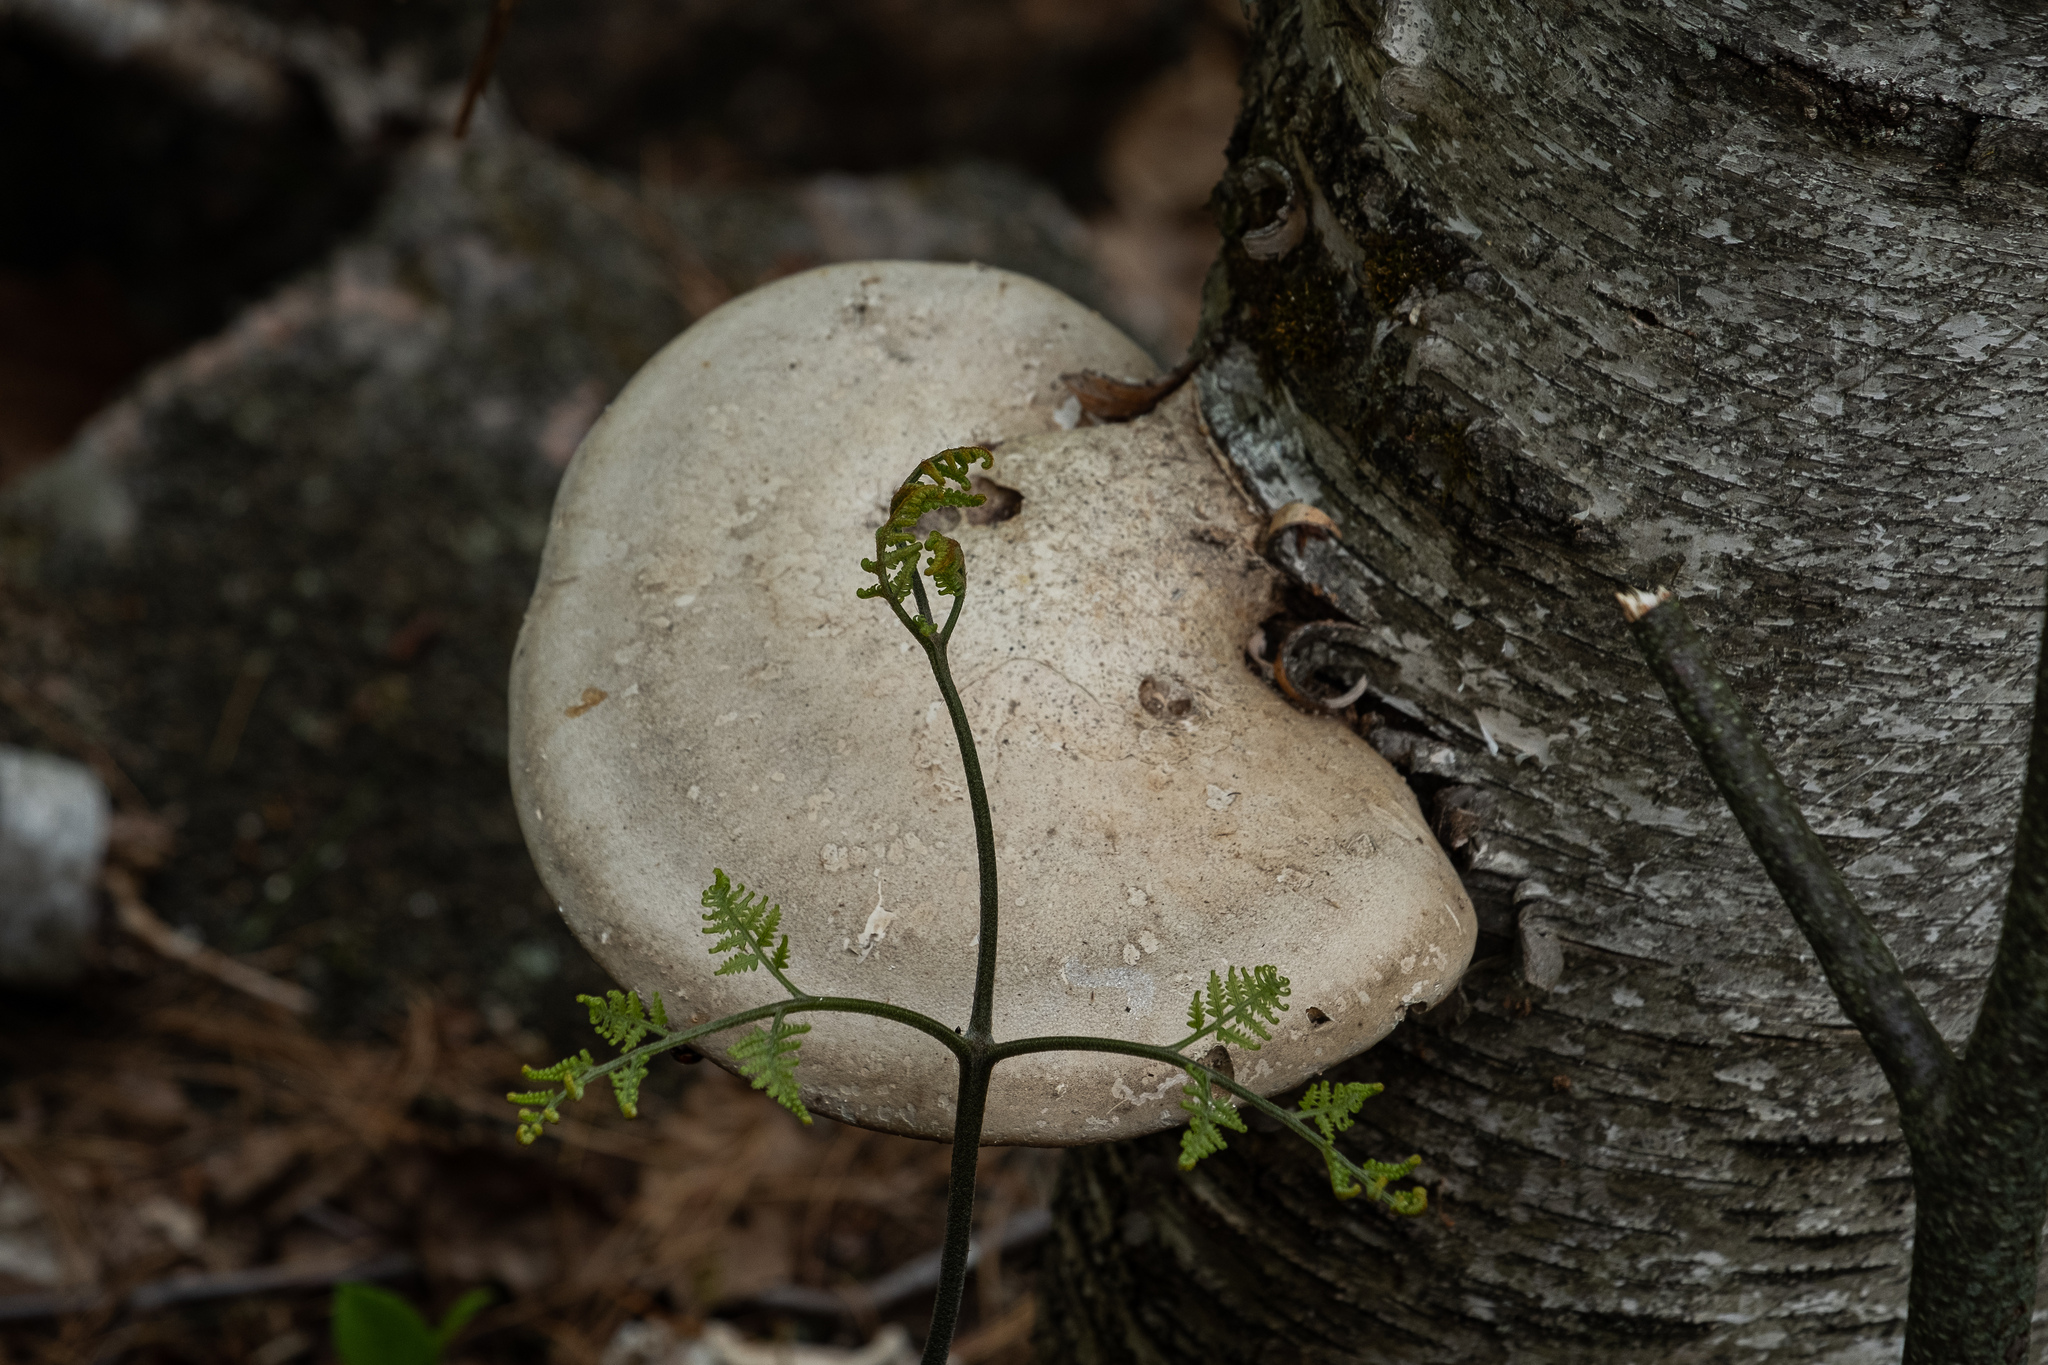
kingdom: Fungi
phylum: Basidiomycota
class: Agaricomycetes
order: Polyporales
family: Fomitopsidaceae
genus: Fomitopsis
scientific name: Fomitopsis betulina
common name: Birch polypore
